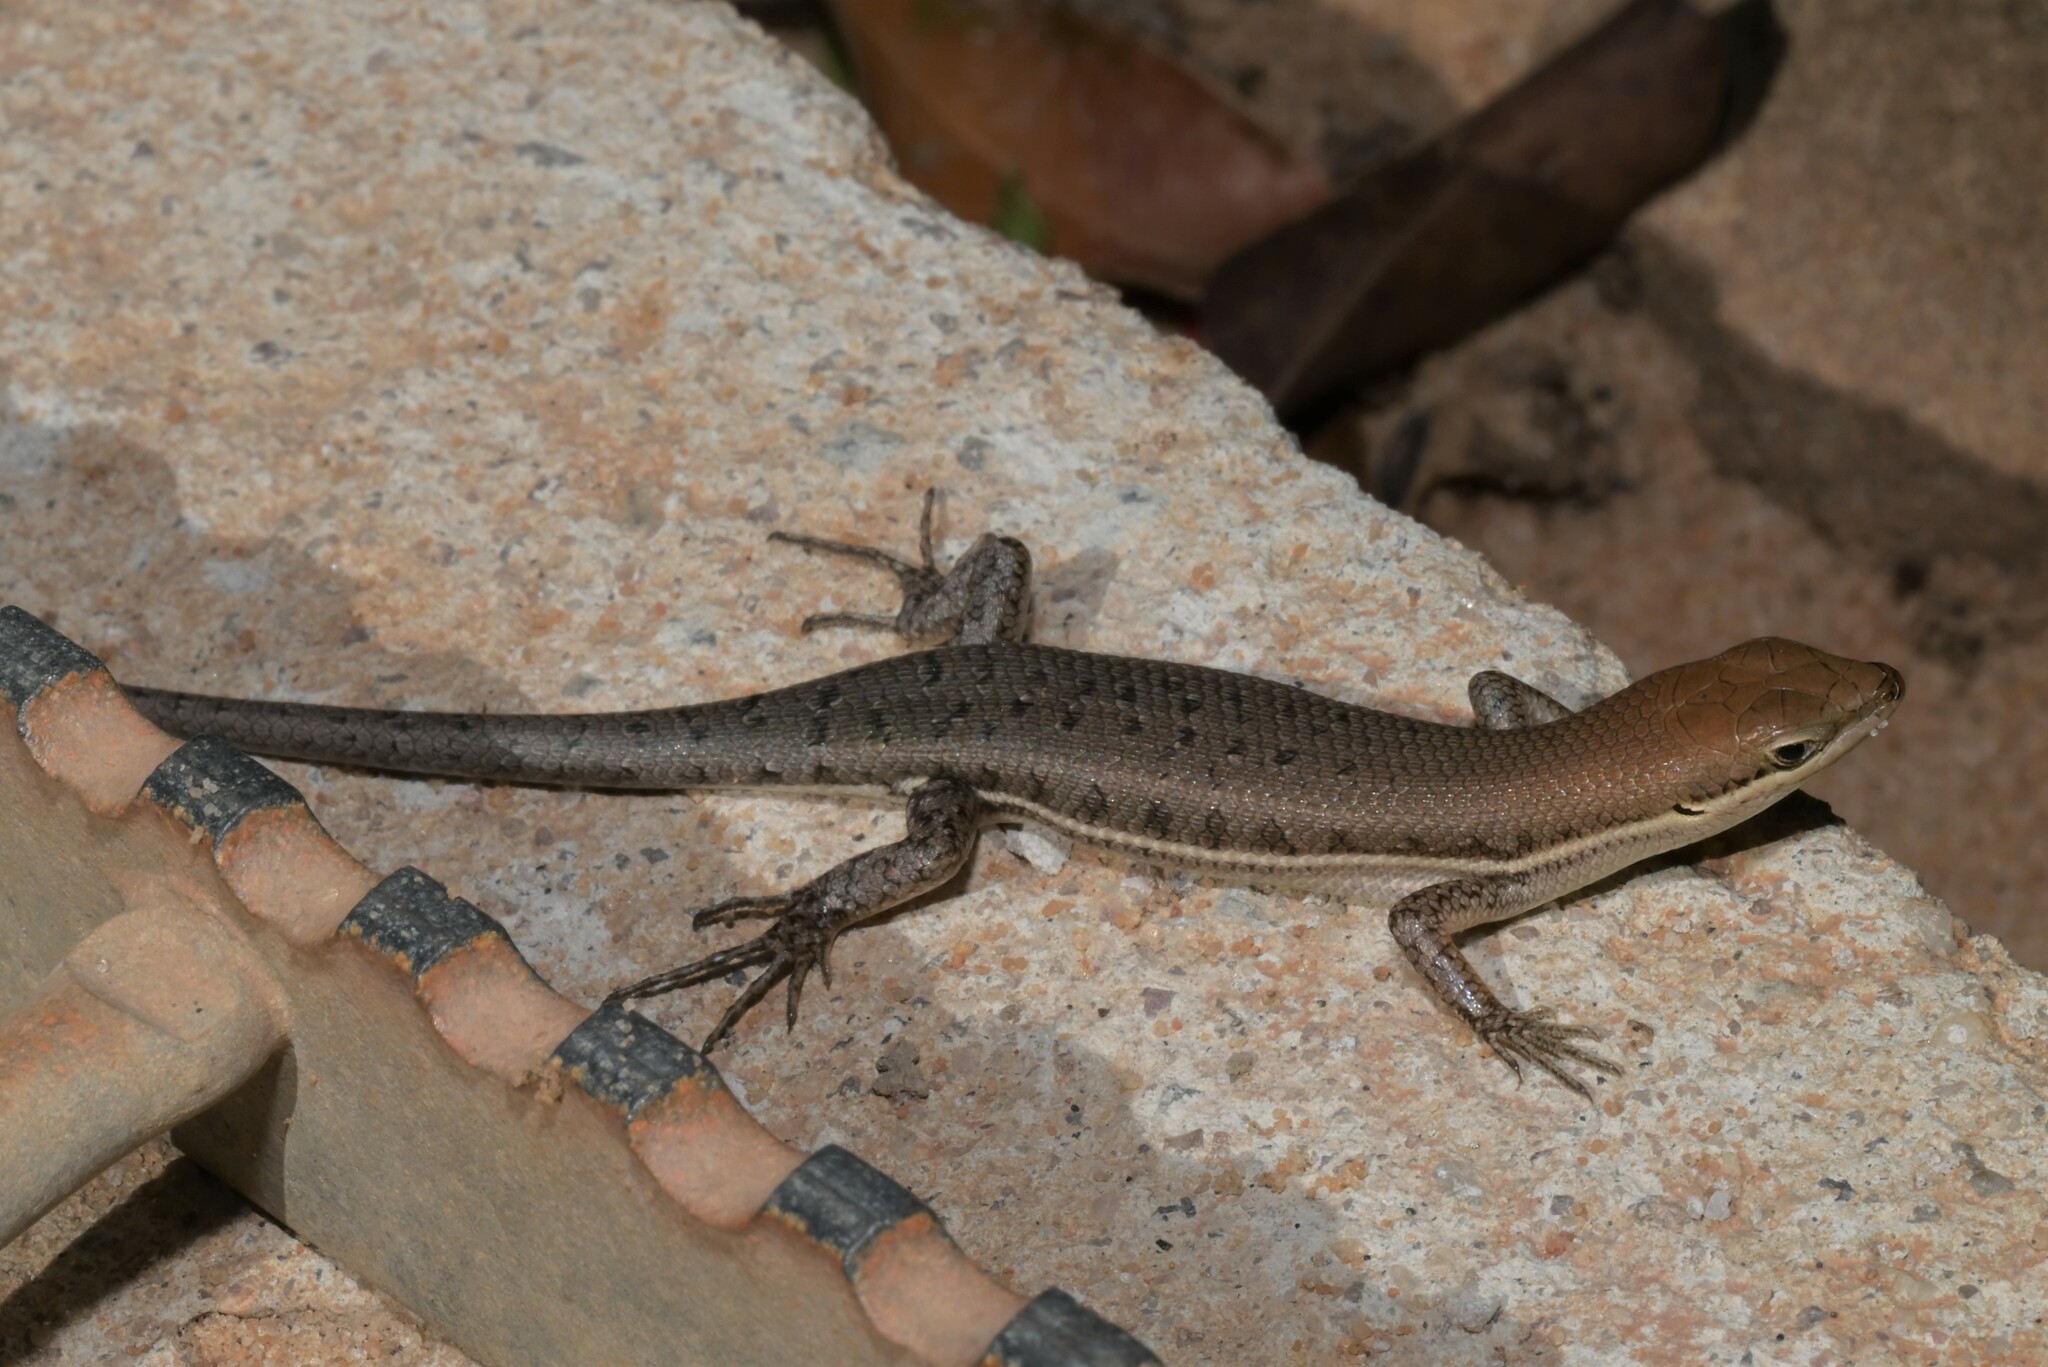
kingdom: Animalia
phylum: Chordata
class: Squamata
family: Scincidae
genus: Trachylepis
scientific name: Trachylepis varia
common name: Eastern variable skink
